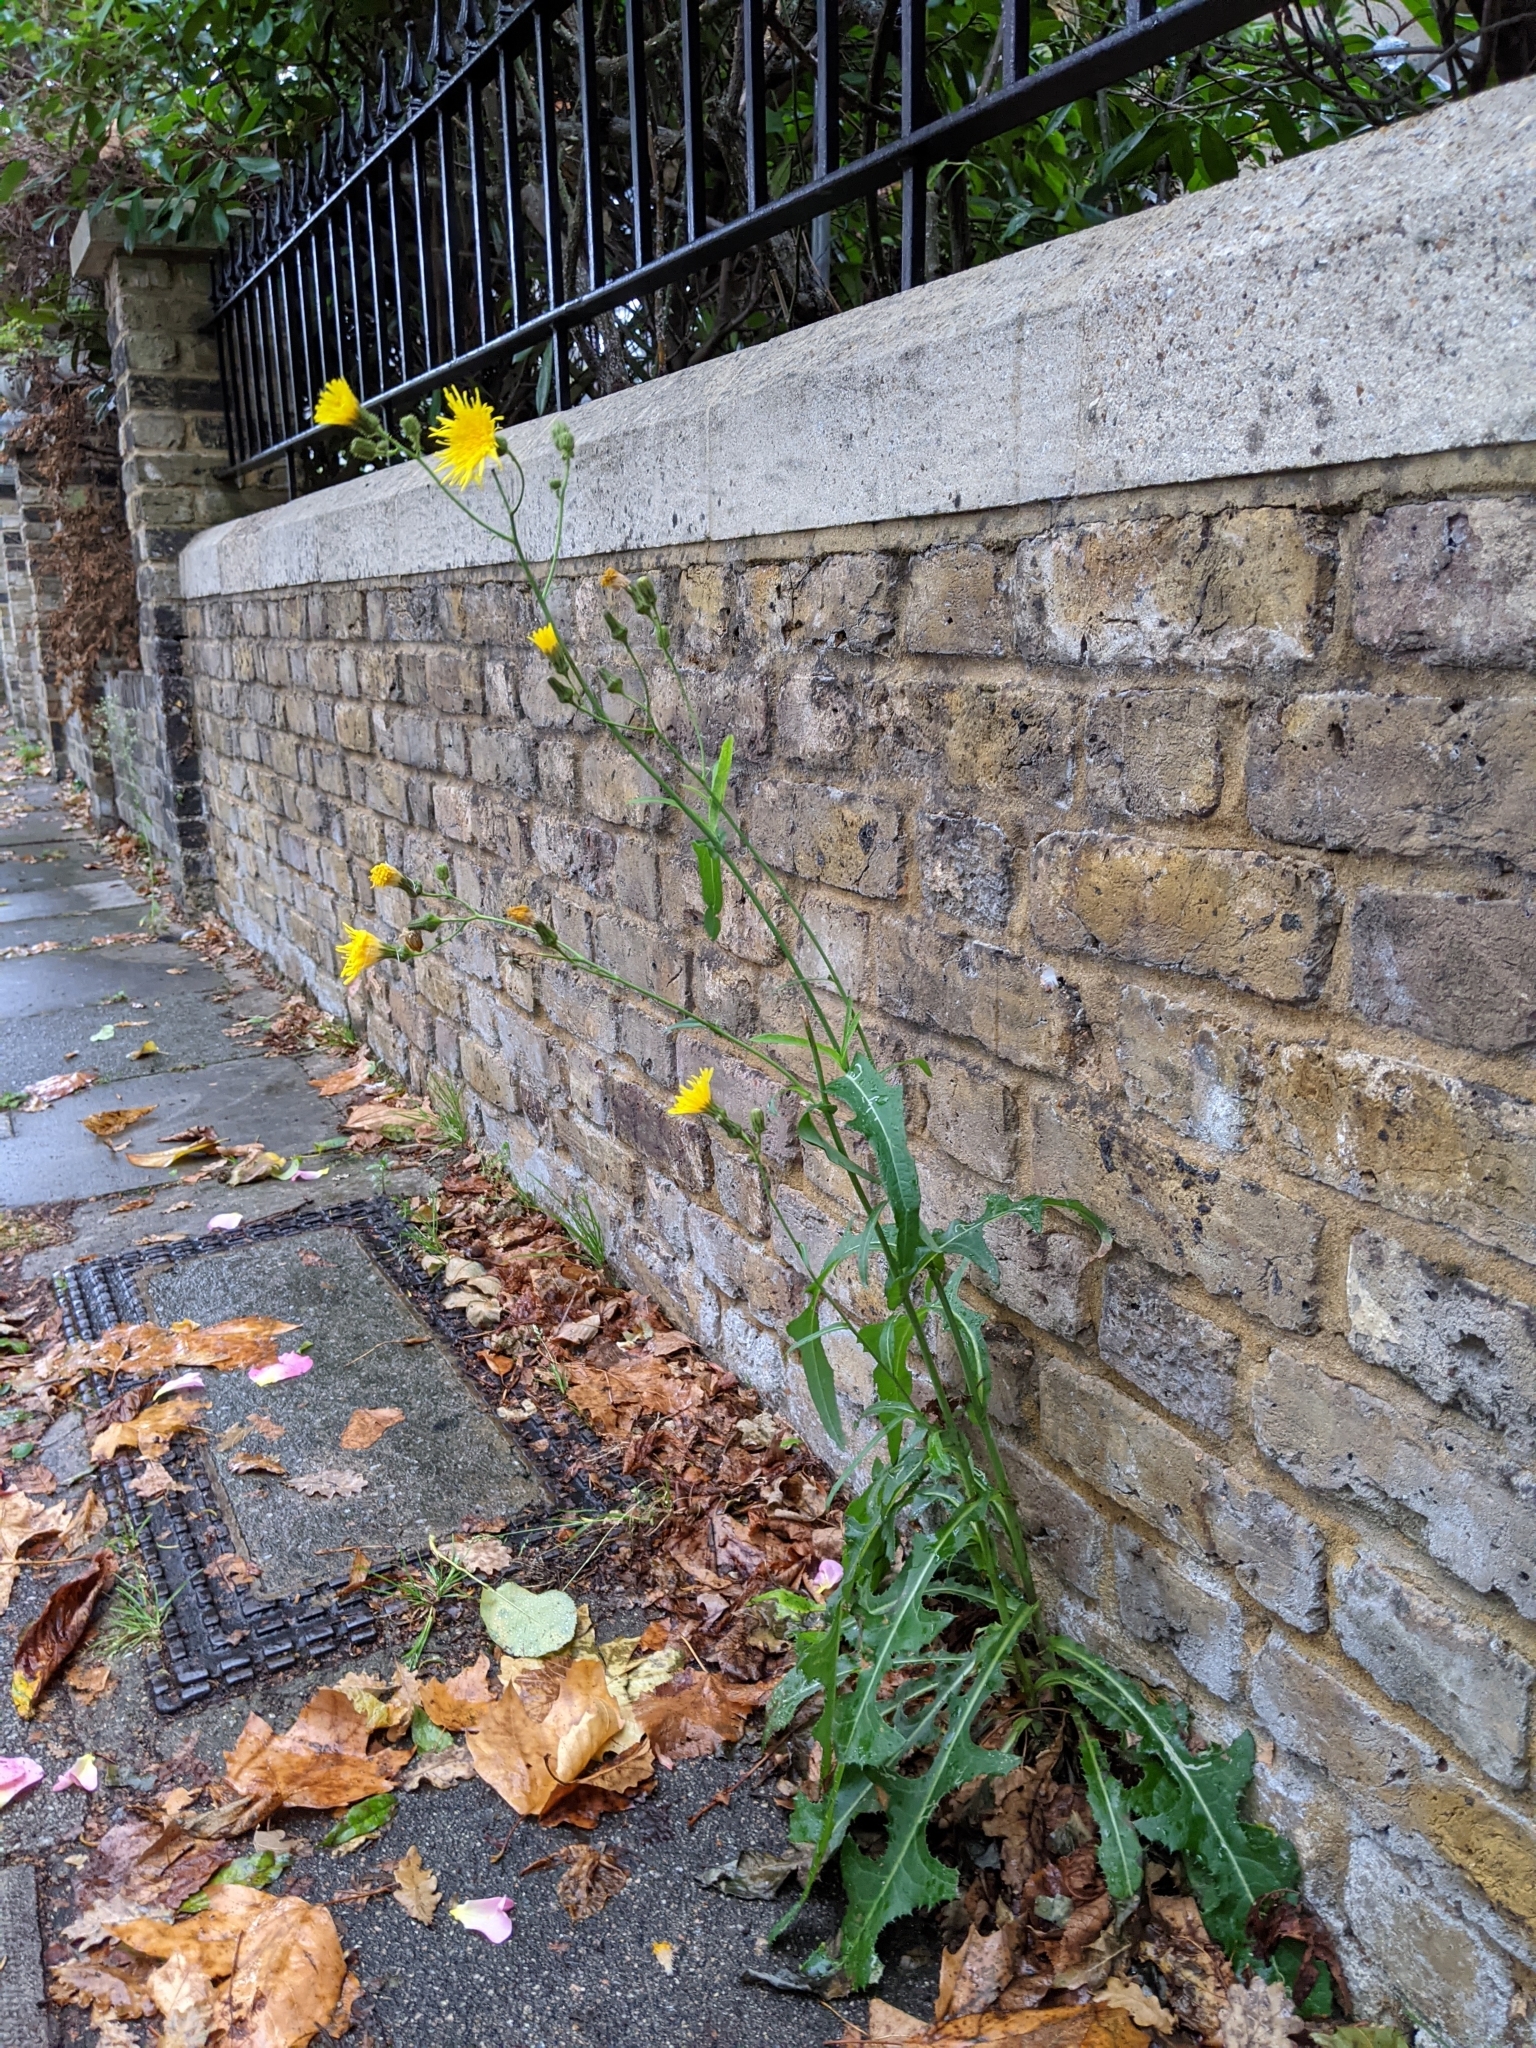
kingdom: Plantae
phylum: Tracheophyta
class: Magnoliopsida
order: Asterales
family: Asteraceae
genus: Sonchus
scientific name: Sonchus arvensis
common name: Perennial sow-thistle
